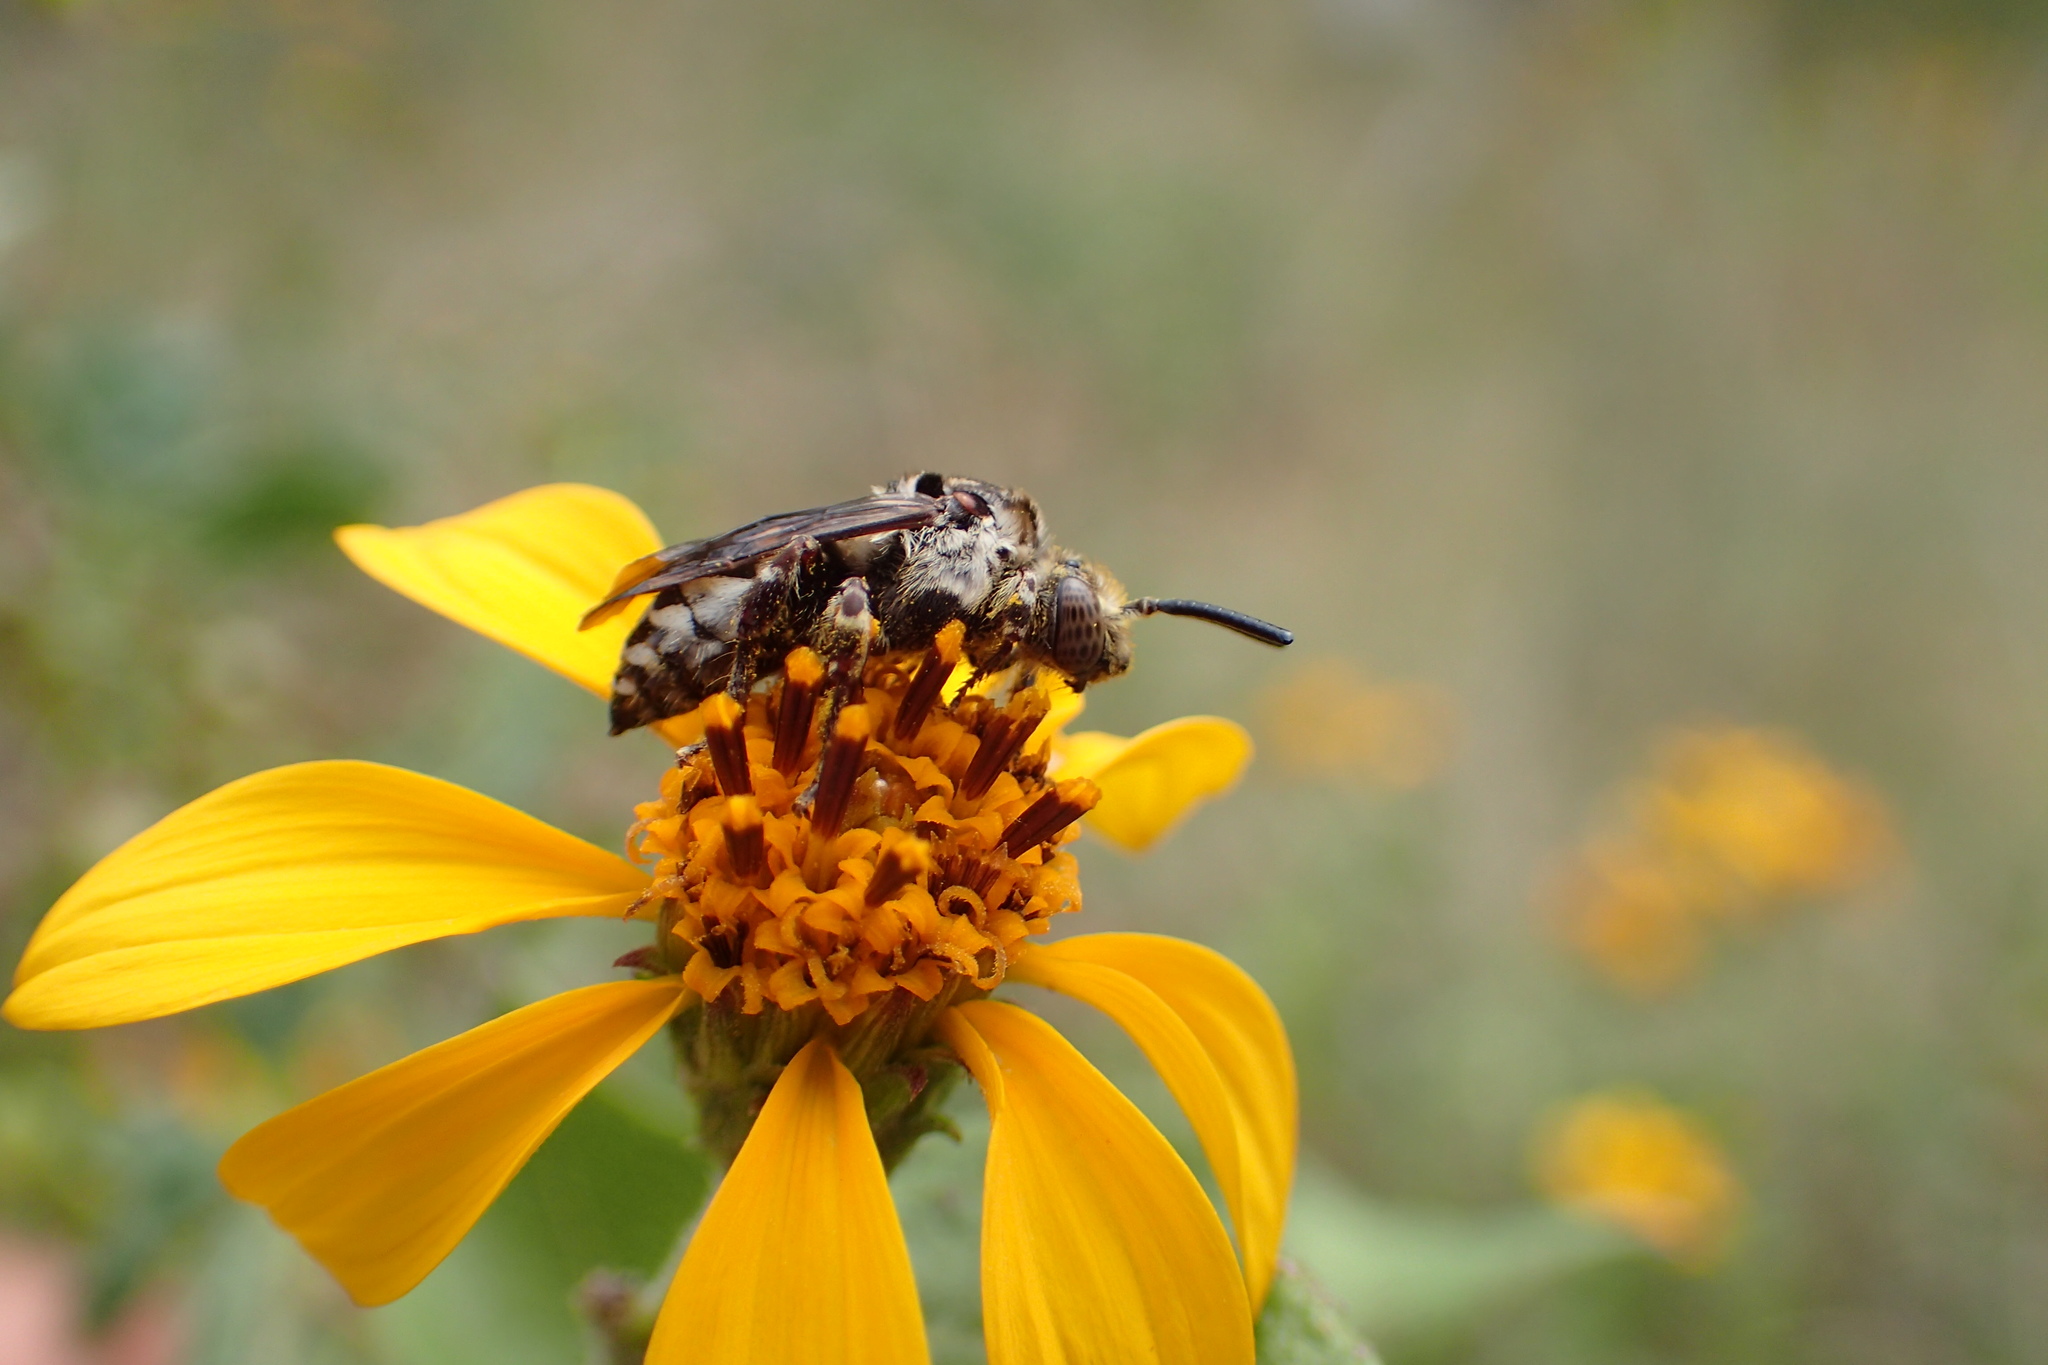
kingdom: Animalia
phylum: Arthropoda
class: Insecta
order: Hymenoptera
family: Apidae
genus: Brachymelecta
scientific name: Brachymelecta californica
